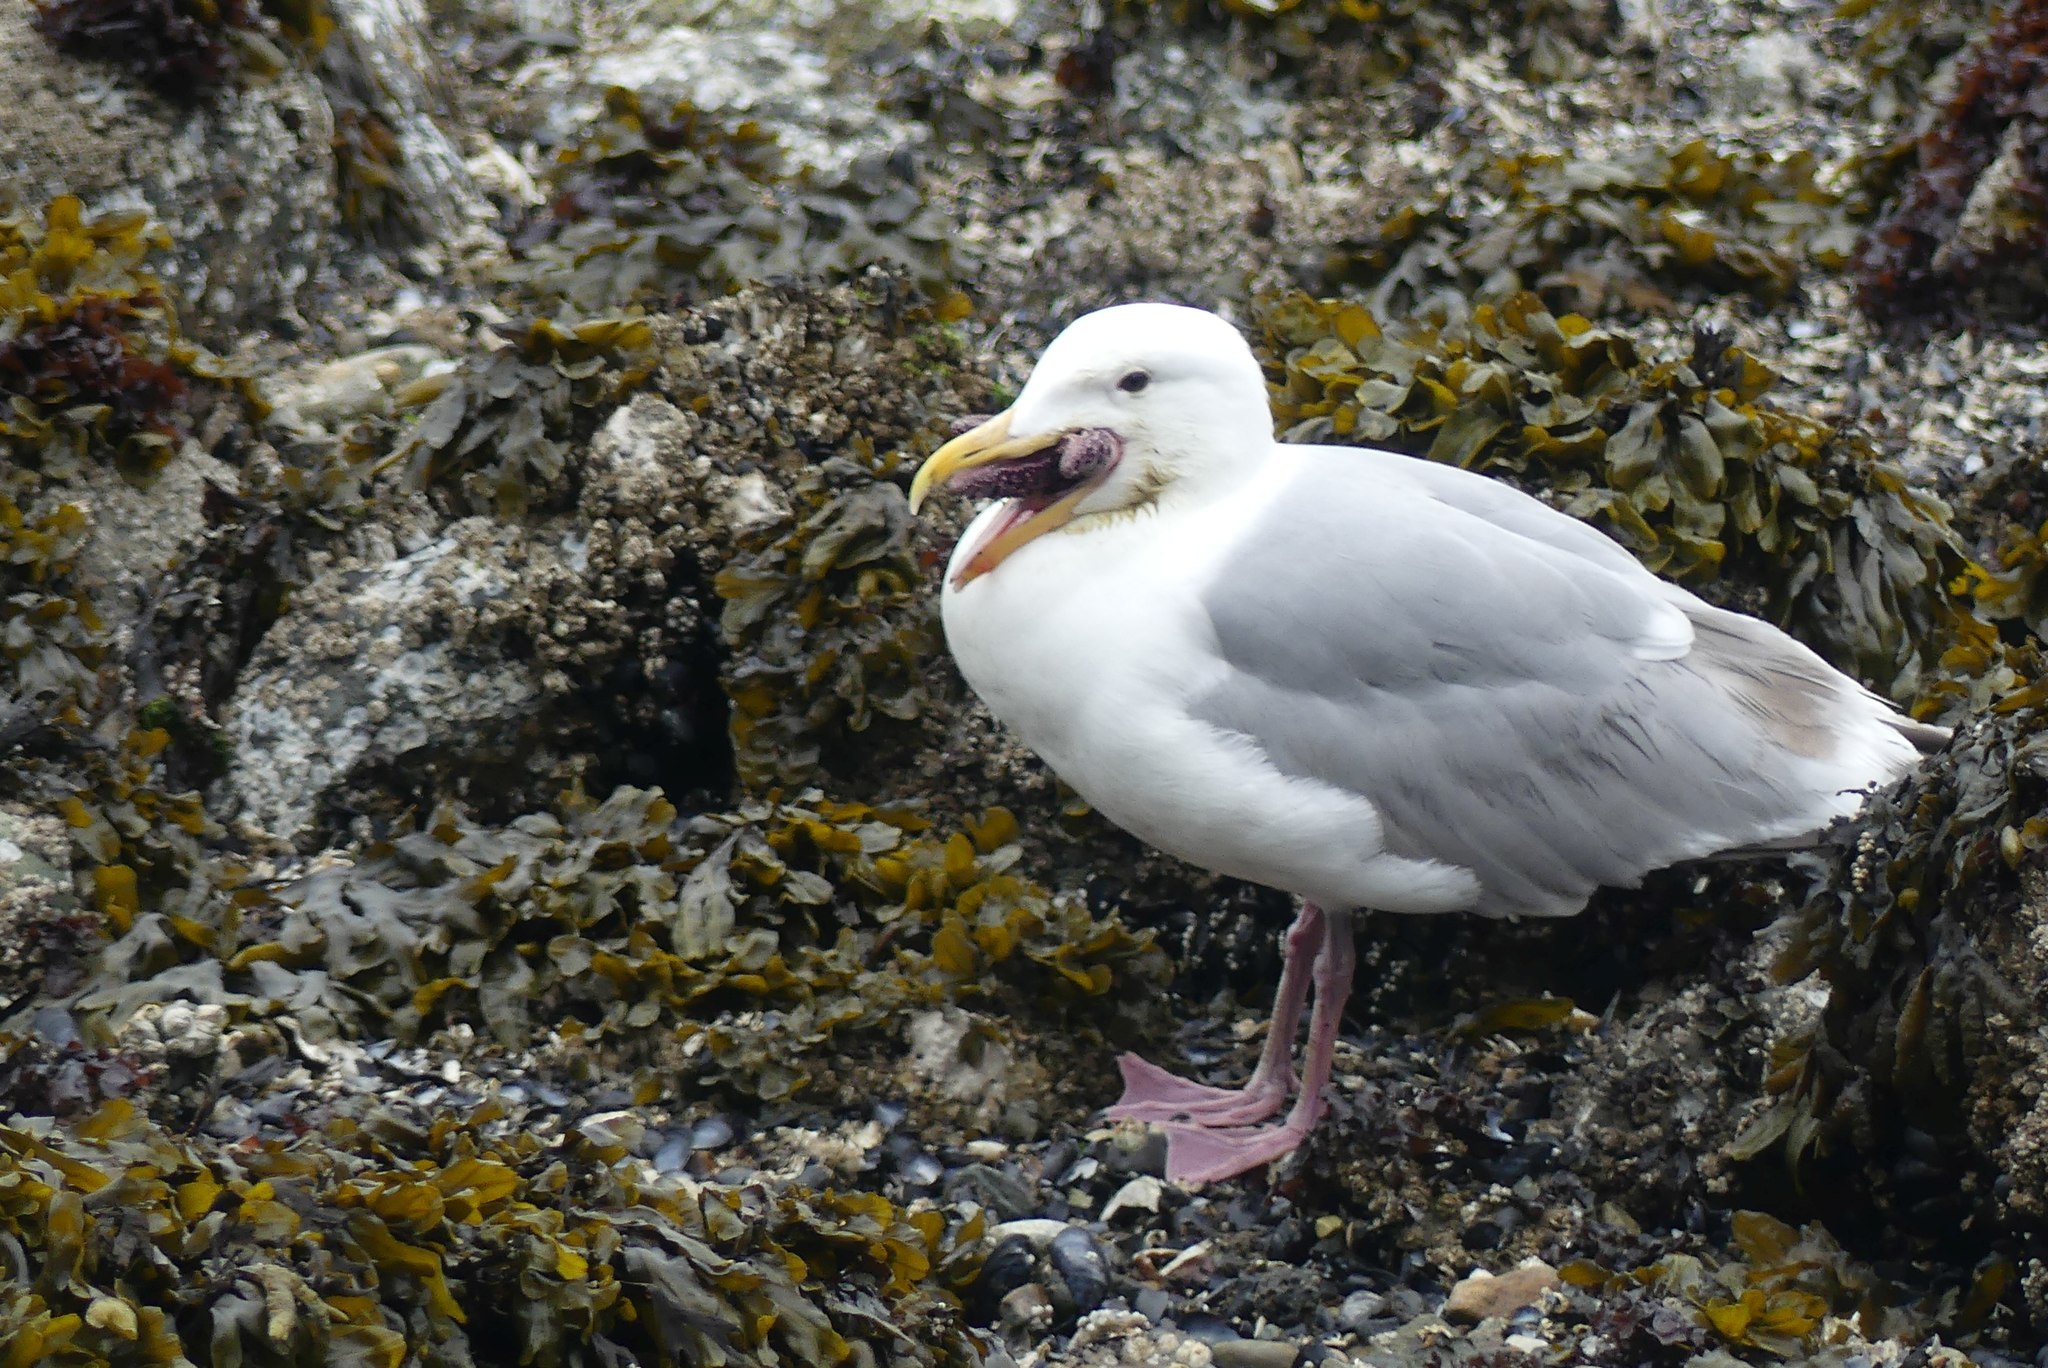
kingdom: Animalia
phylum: Echinodermata
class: Asteroidea
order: Forcipulatida
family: Asteriidae
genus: Pisaster
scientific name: Pisaster ochraceus
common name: Ochre stars
